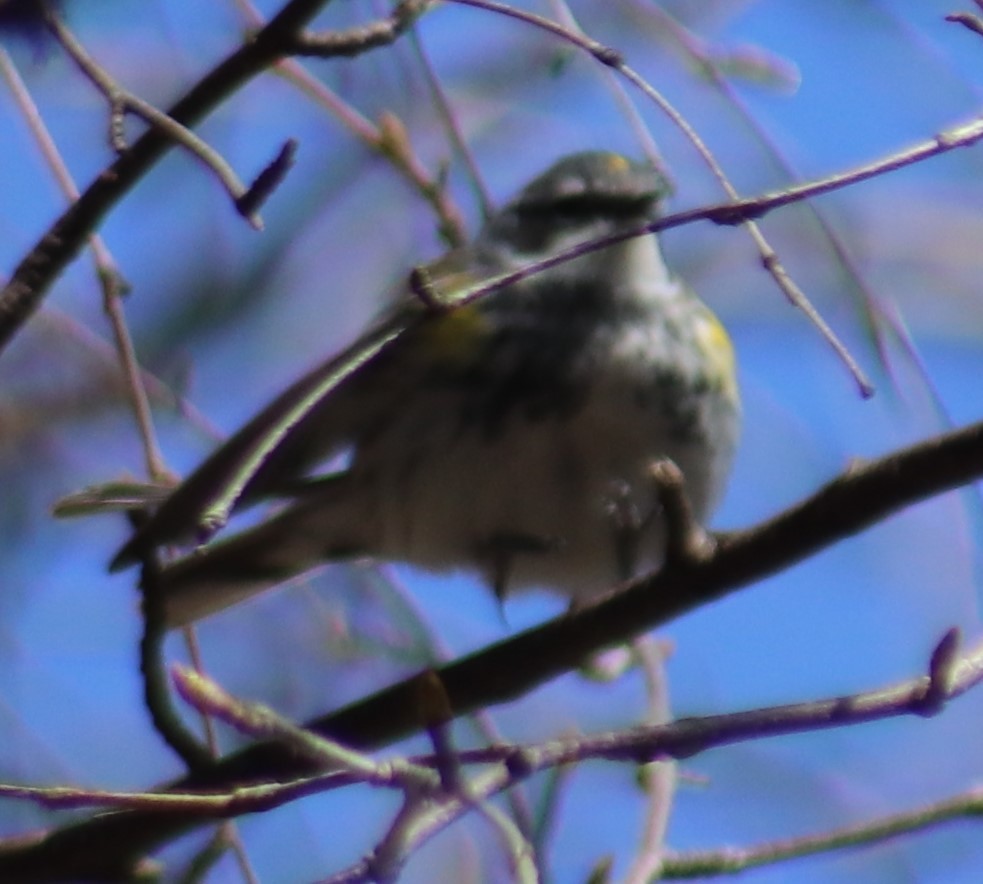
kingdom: Animalia
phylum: Chordata
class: Aves
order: Passeriformes
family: Parulidae
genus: Setophaga
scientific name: Setophaga coronata
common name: Myrtle warbler
